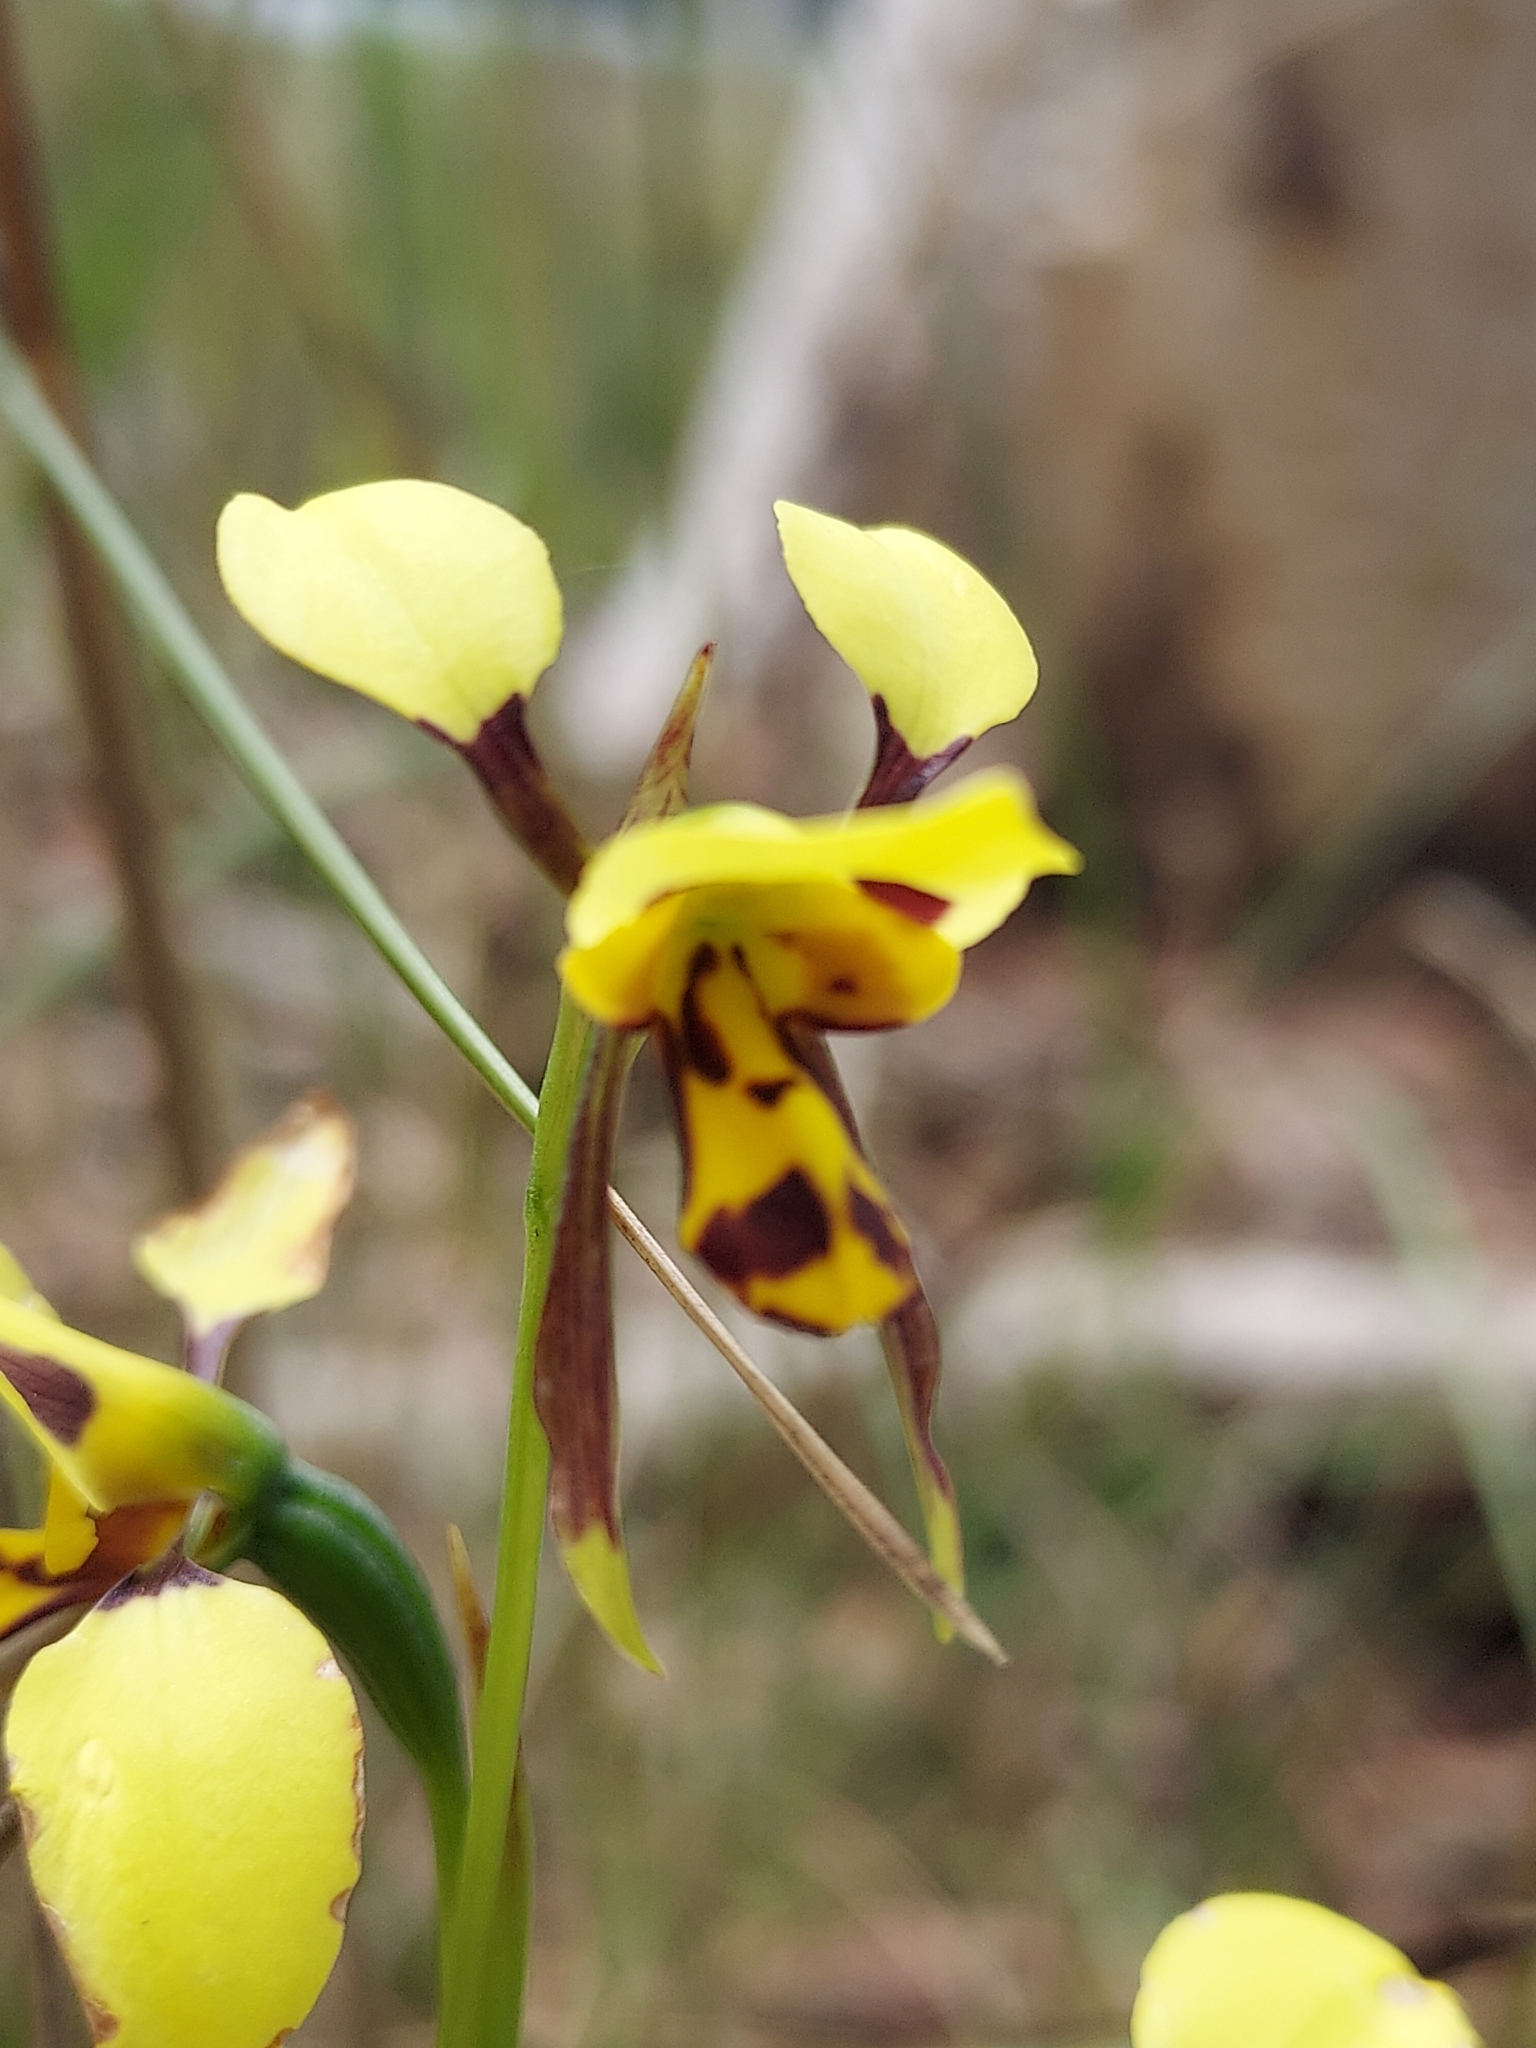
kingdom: Plantae
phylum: Tracheophyta
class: Liliopsida
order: Asparagales
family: Orchidaceae
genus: Diuris
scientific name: Diuris sulphurea
